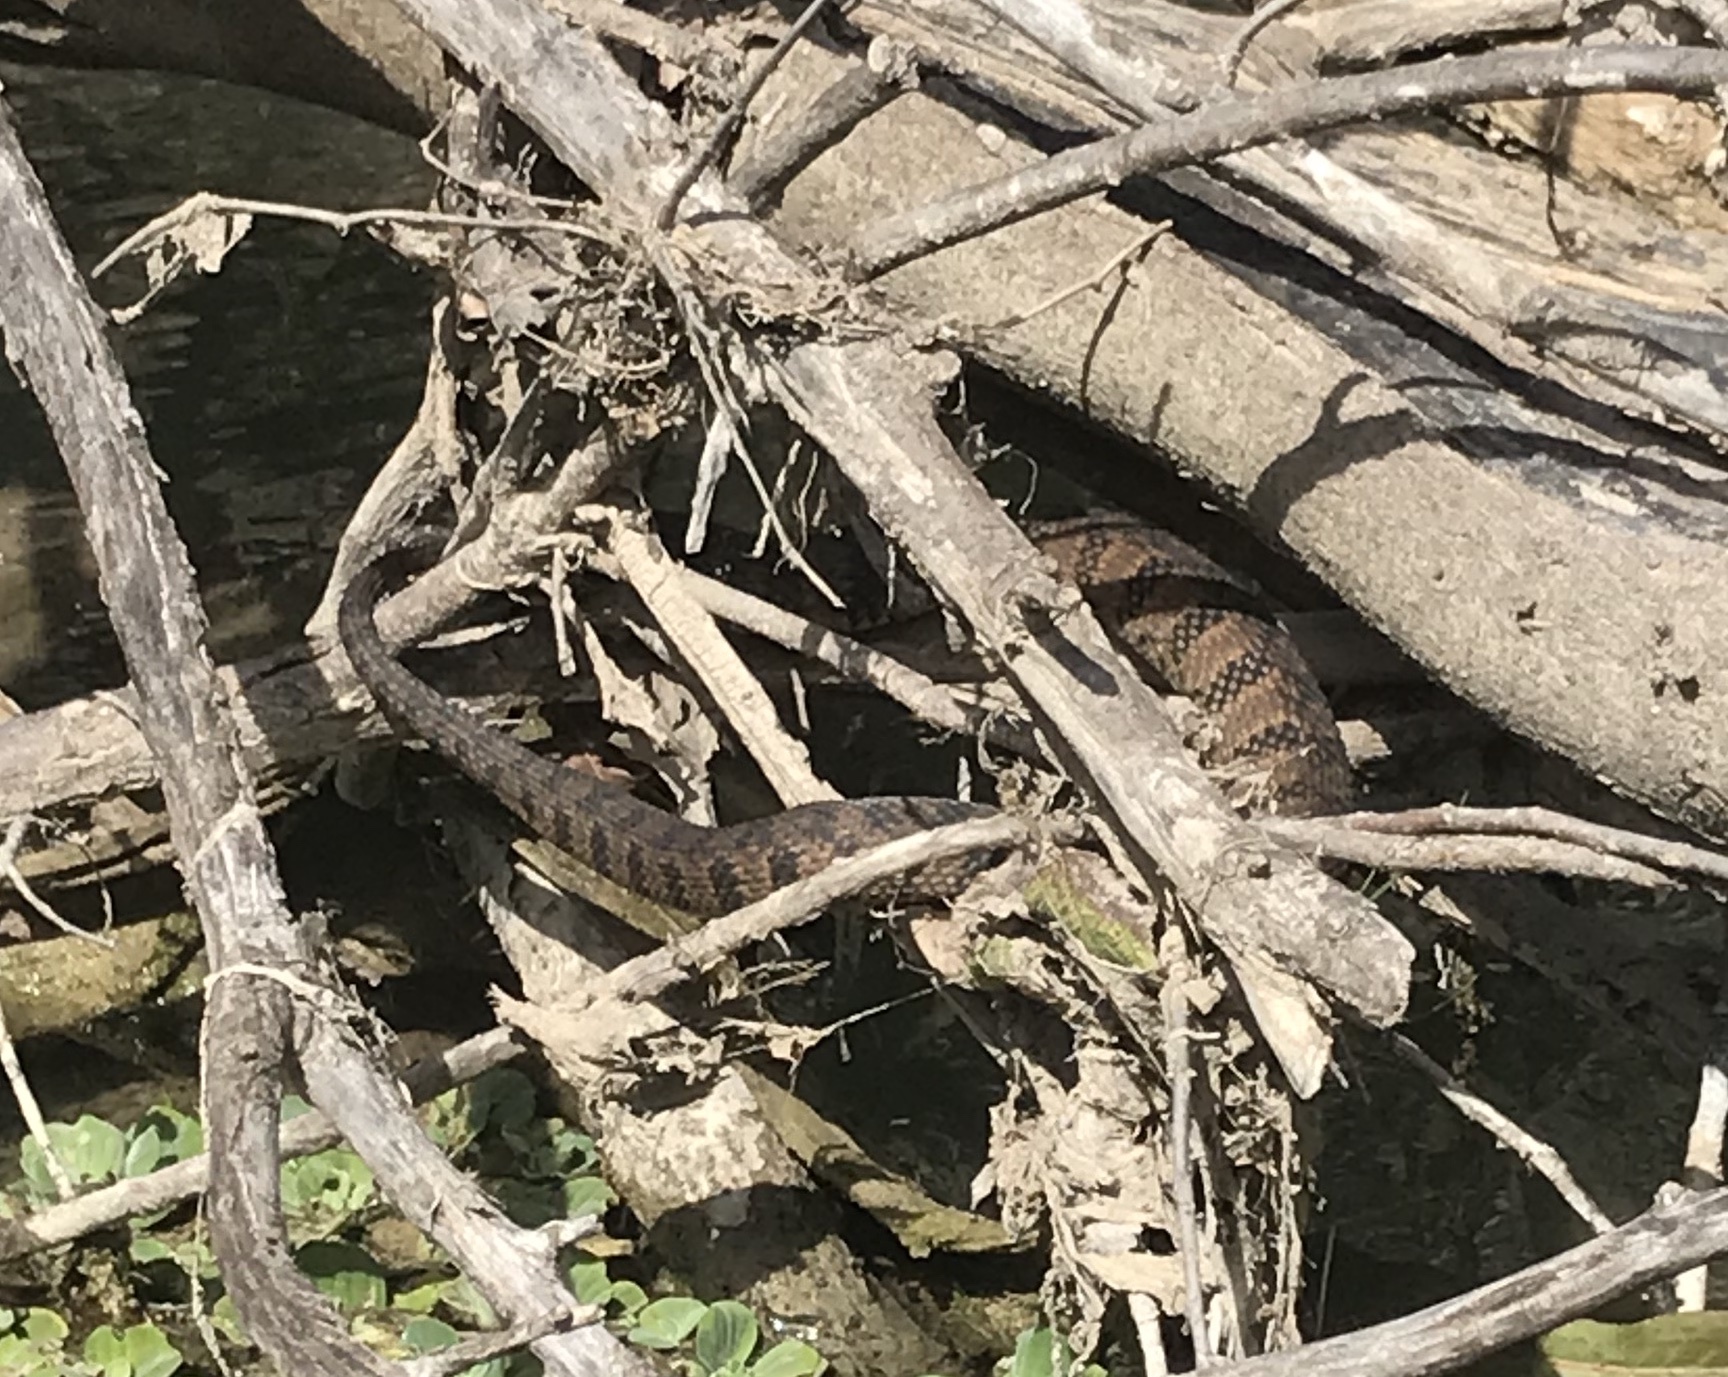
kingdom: Animalia
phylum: Chordata
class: Squamata
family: Colubridae
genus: Nerodia
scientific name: Nerodia rhombifer
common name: Diamondback water snake
